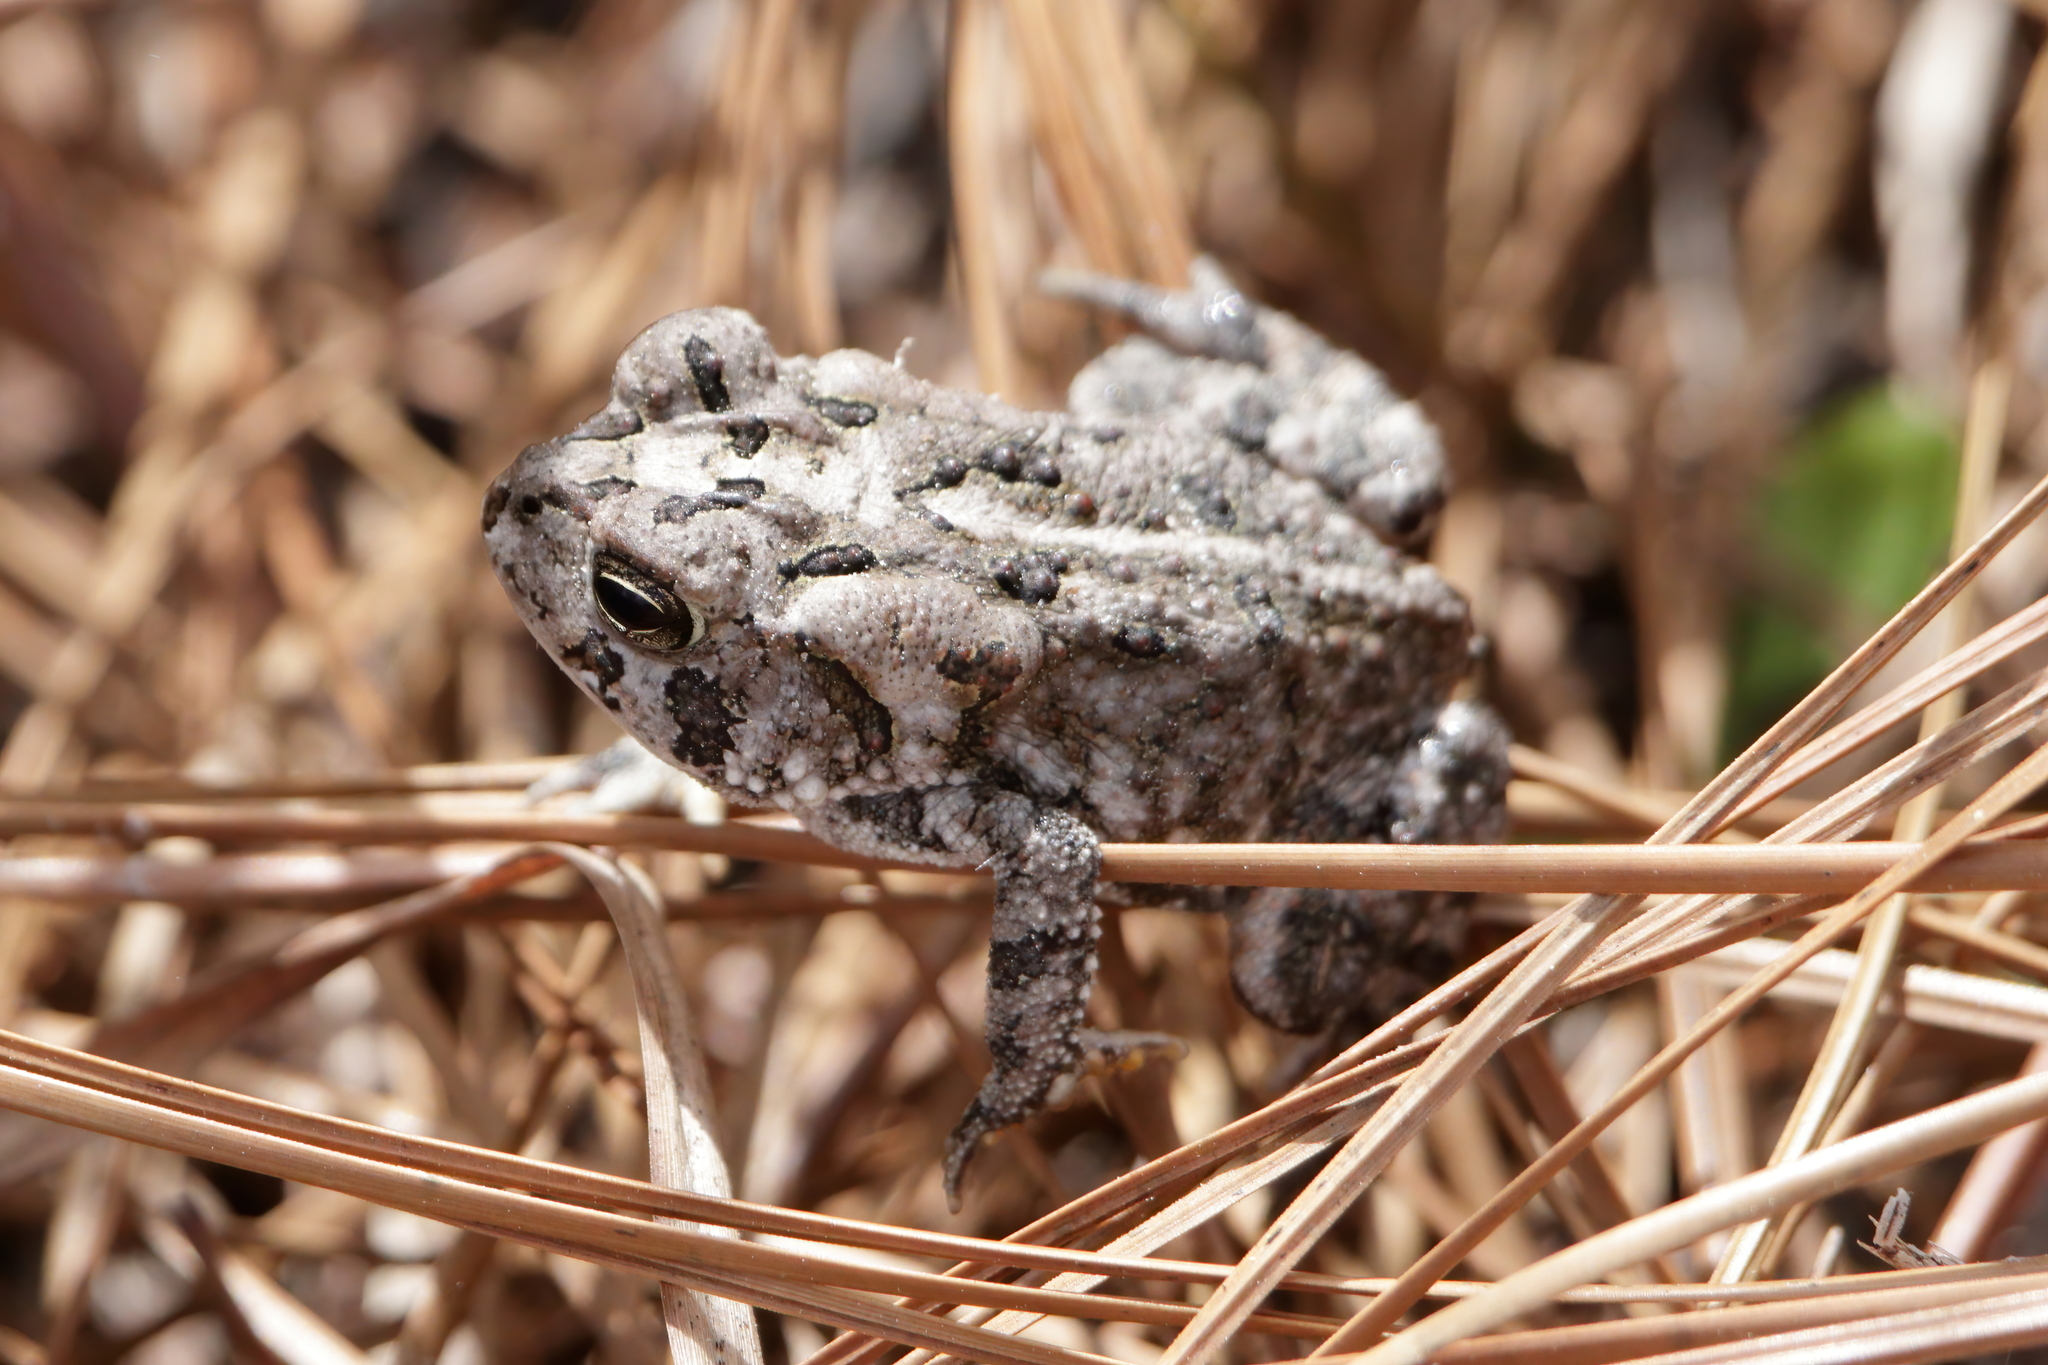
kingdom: Animalia
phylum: Chordata
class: Amphibia
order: Anura
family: Bufonidae
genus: Anaxyrus
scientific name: Anaxyrus terrestris
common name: Southern toad
